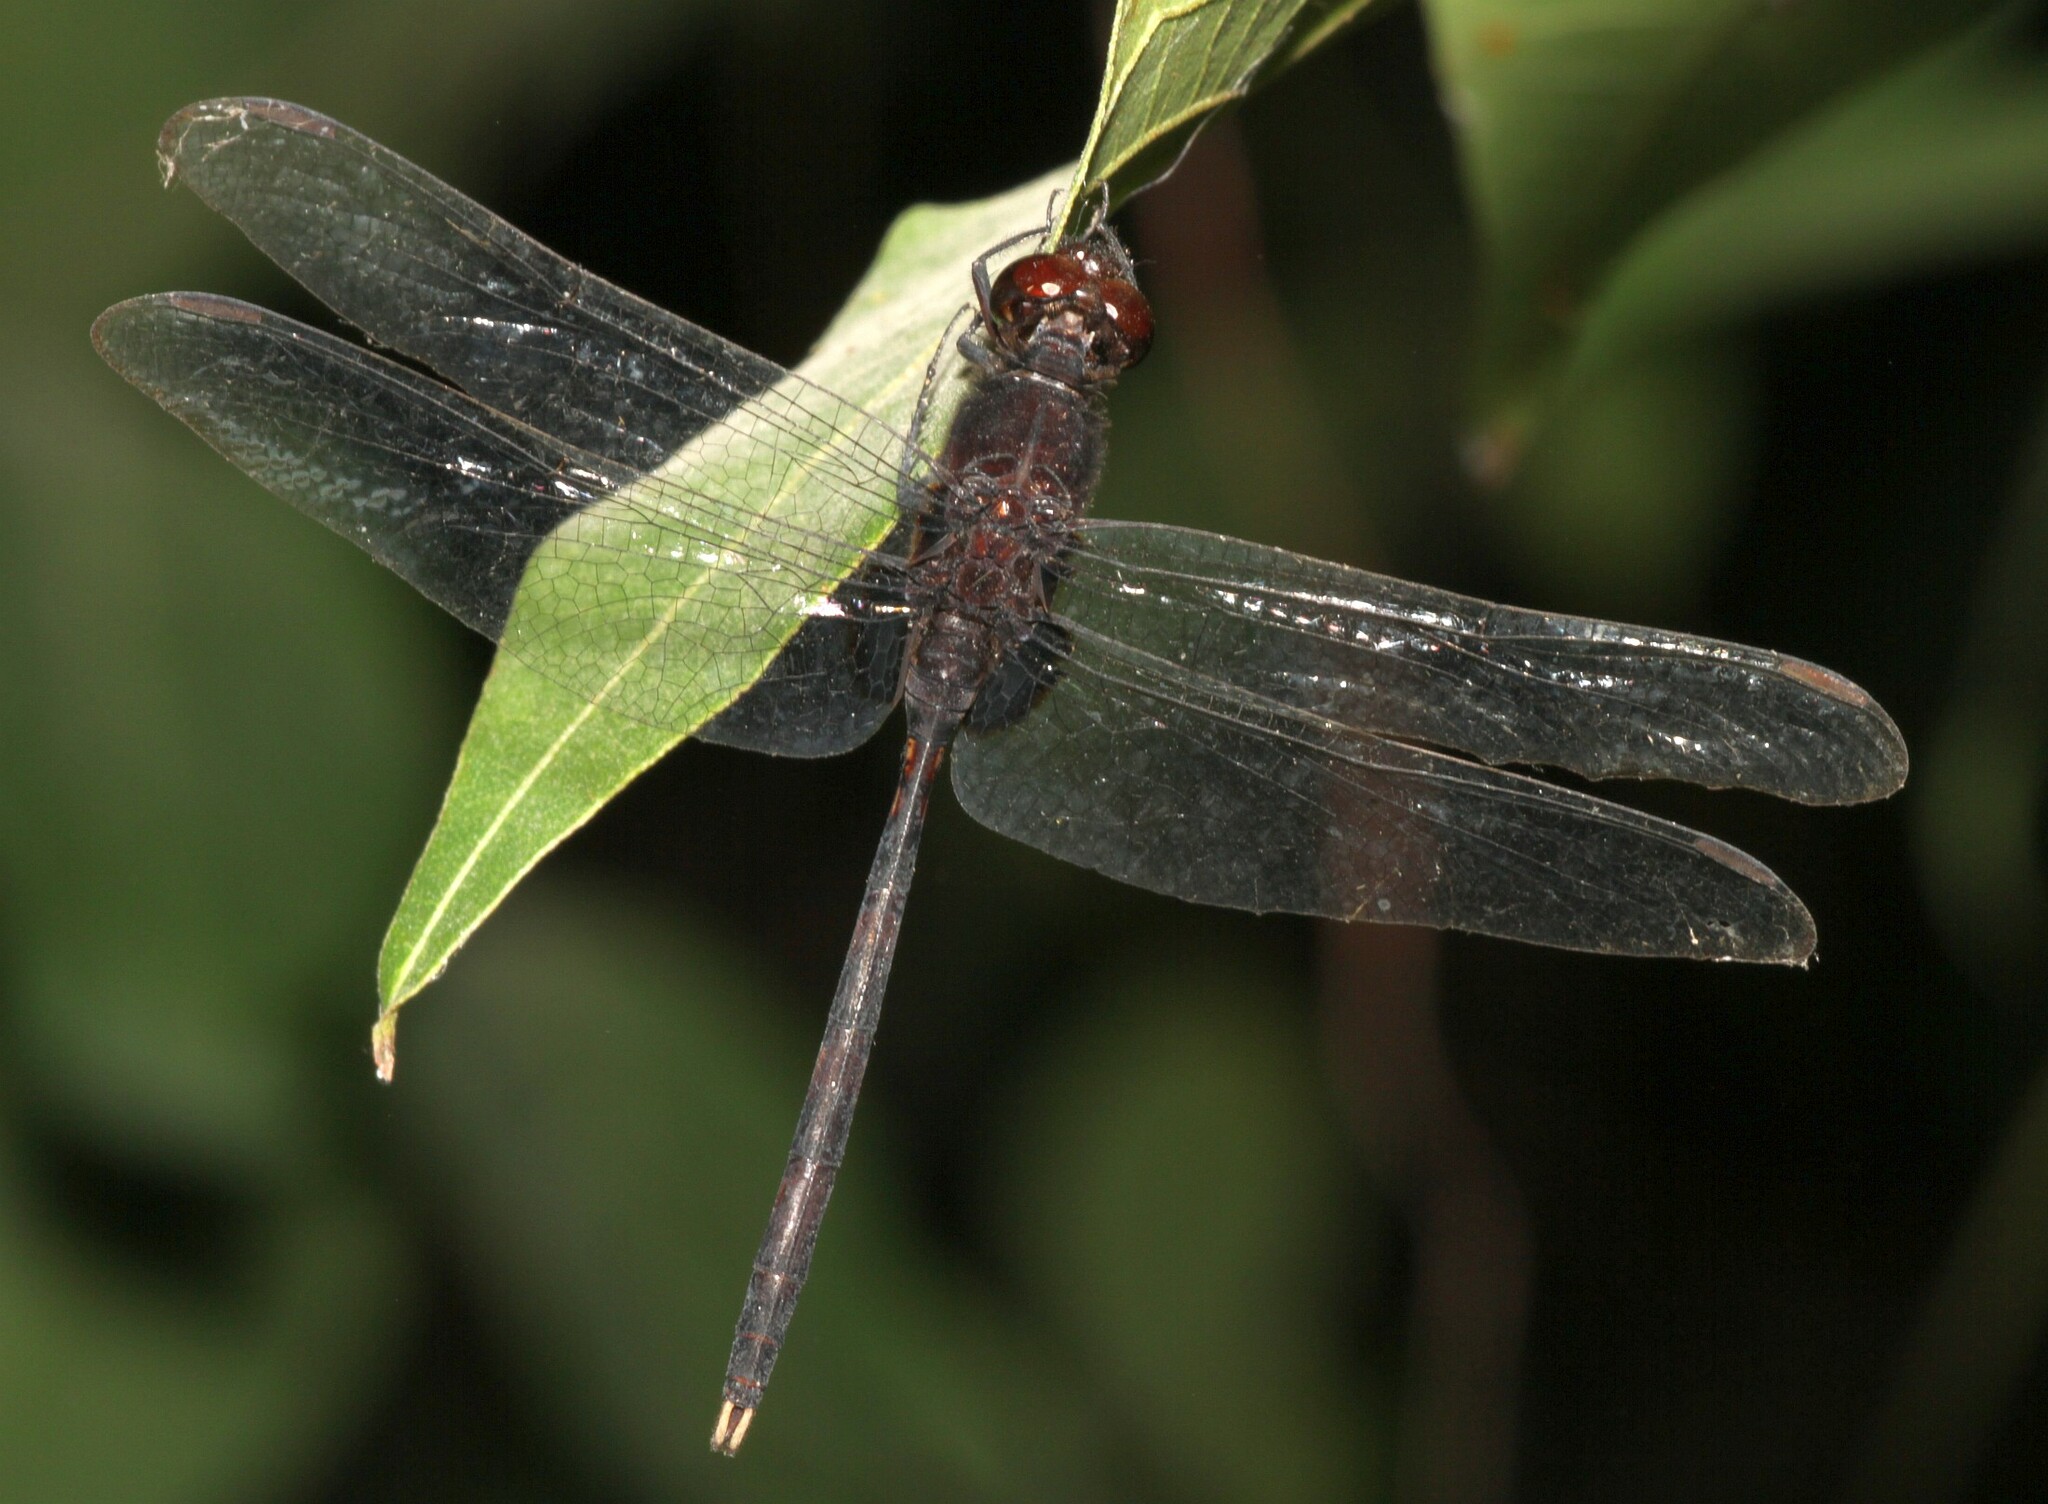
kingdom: Animalia
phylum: Arthropoda
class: Insecta
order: Odonata
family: Libellulidae
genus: Erythemis
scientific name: Erythemis plebeja
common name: Pin-tailed pondhawk
